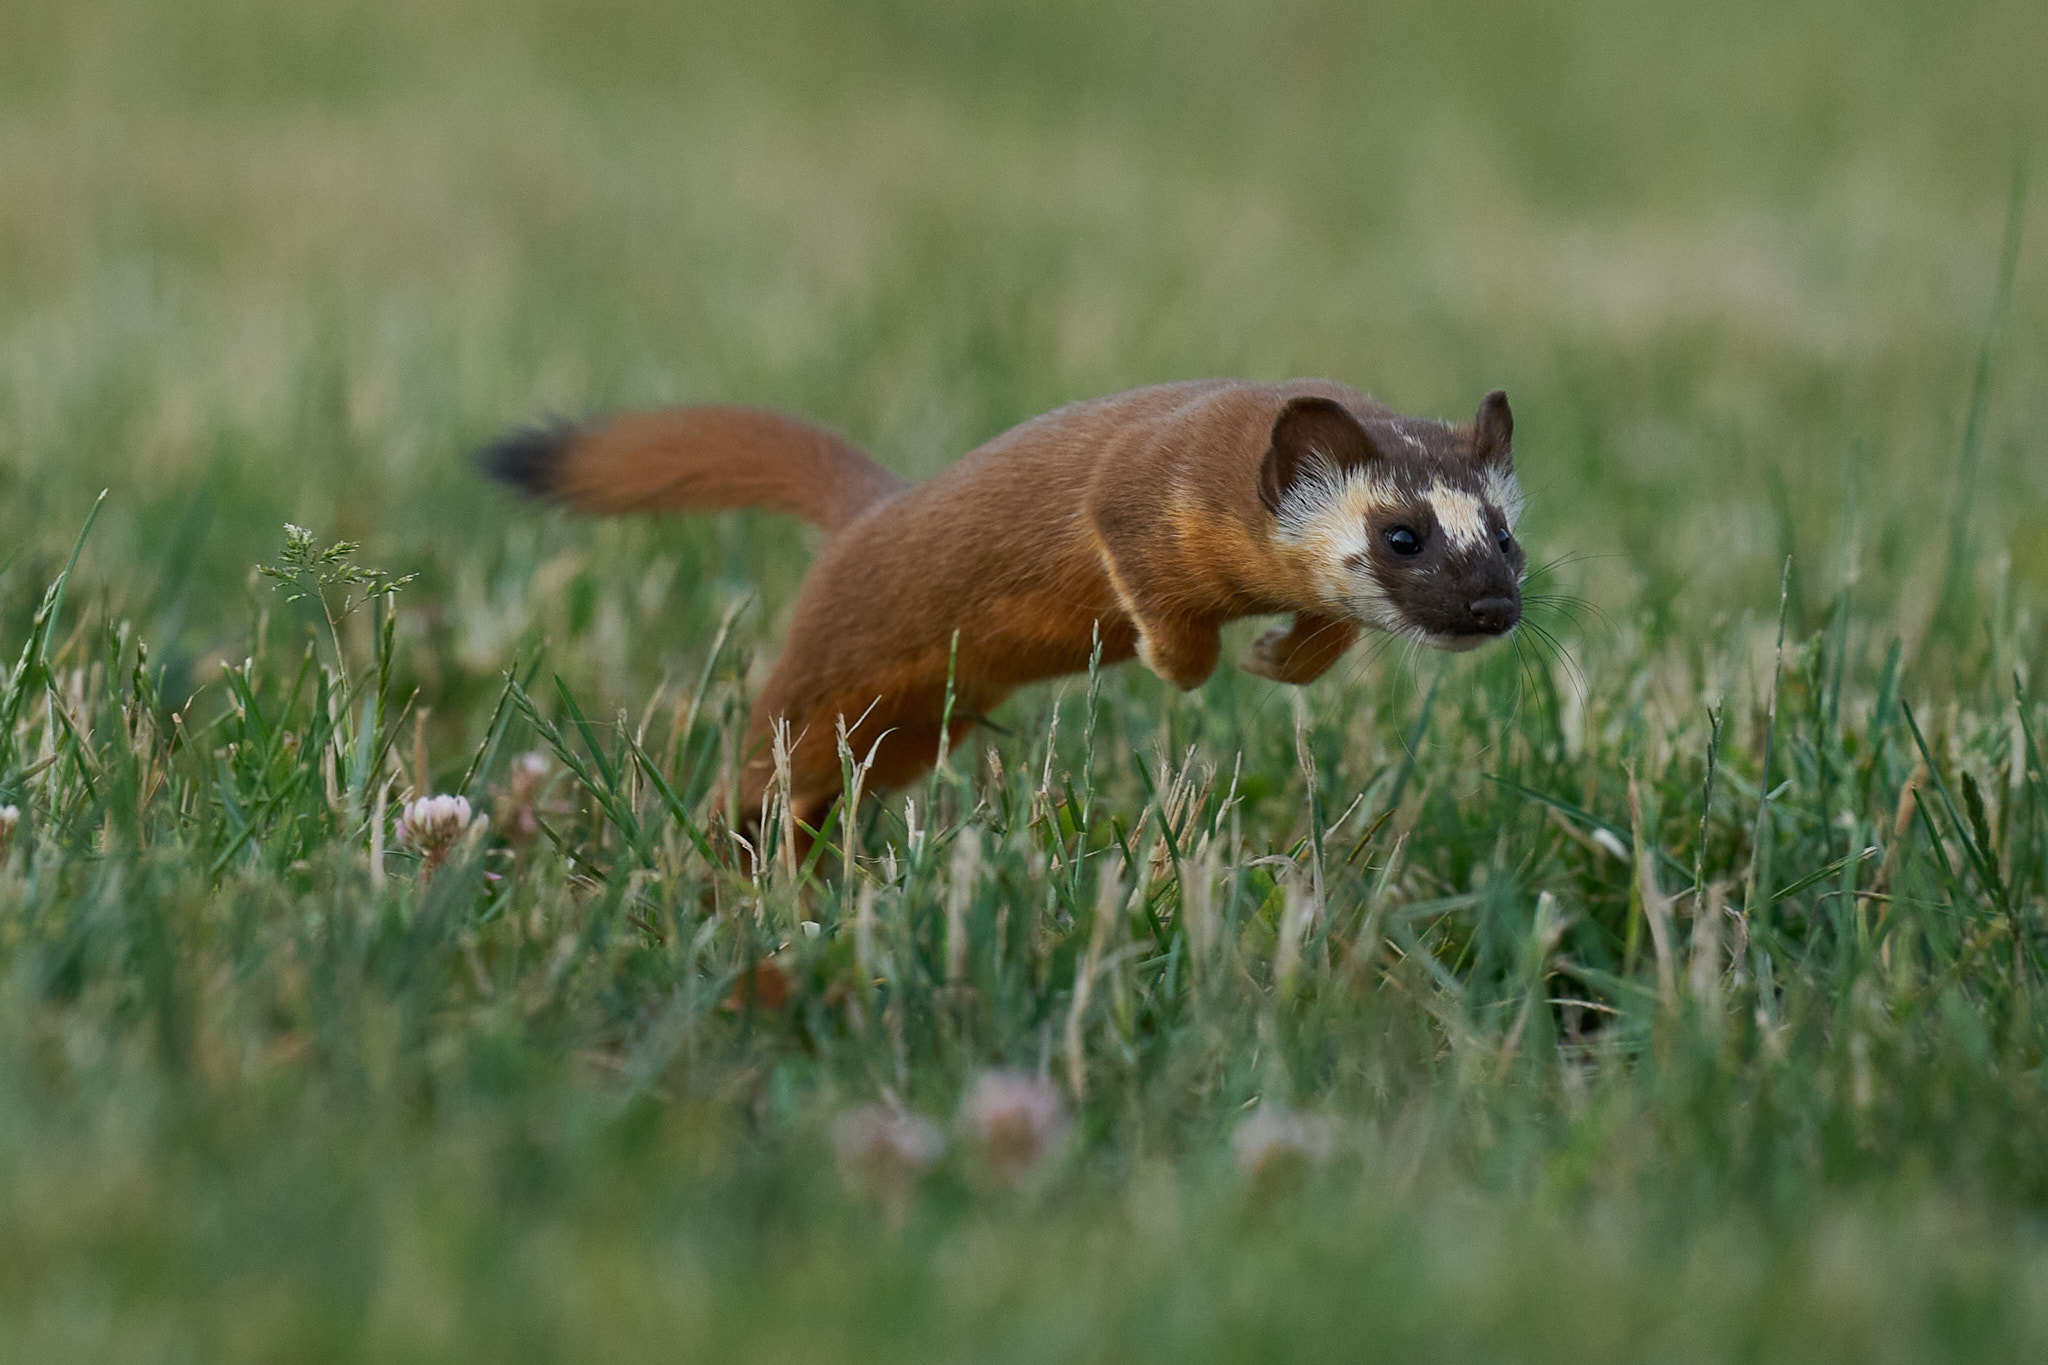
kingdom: Animalia
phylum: Chordata
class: Mammalia
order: Carnivora
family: Mustelidae
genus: Mustela
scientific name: Mustela
